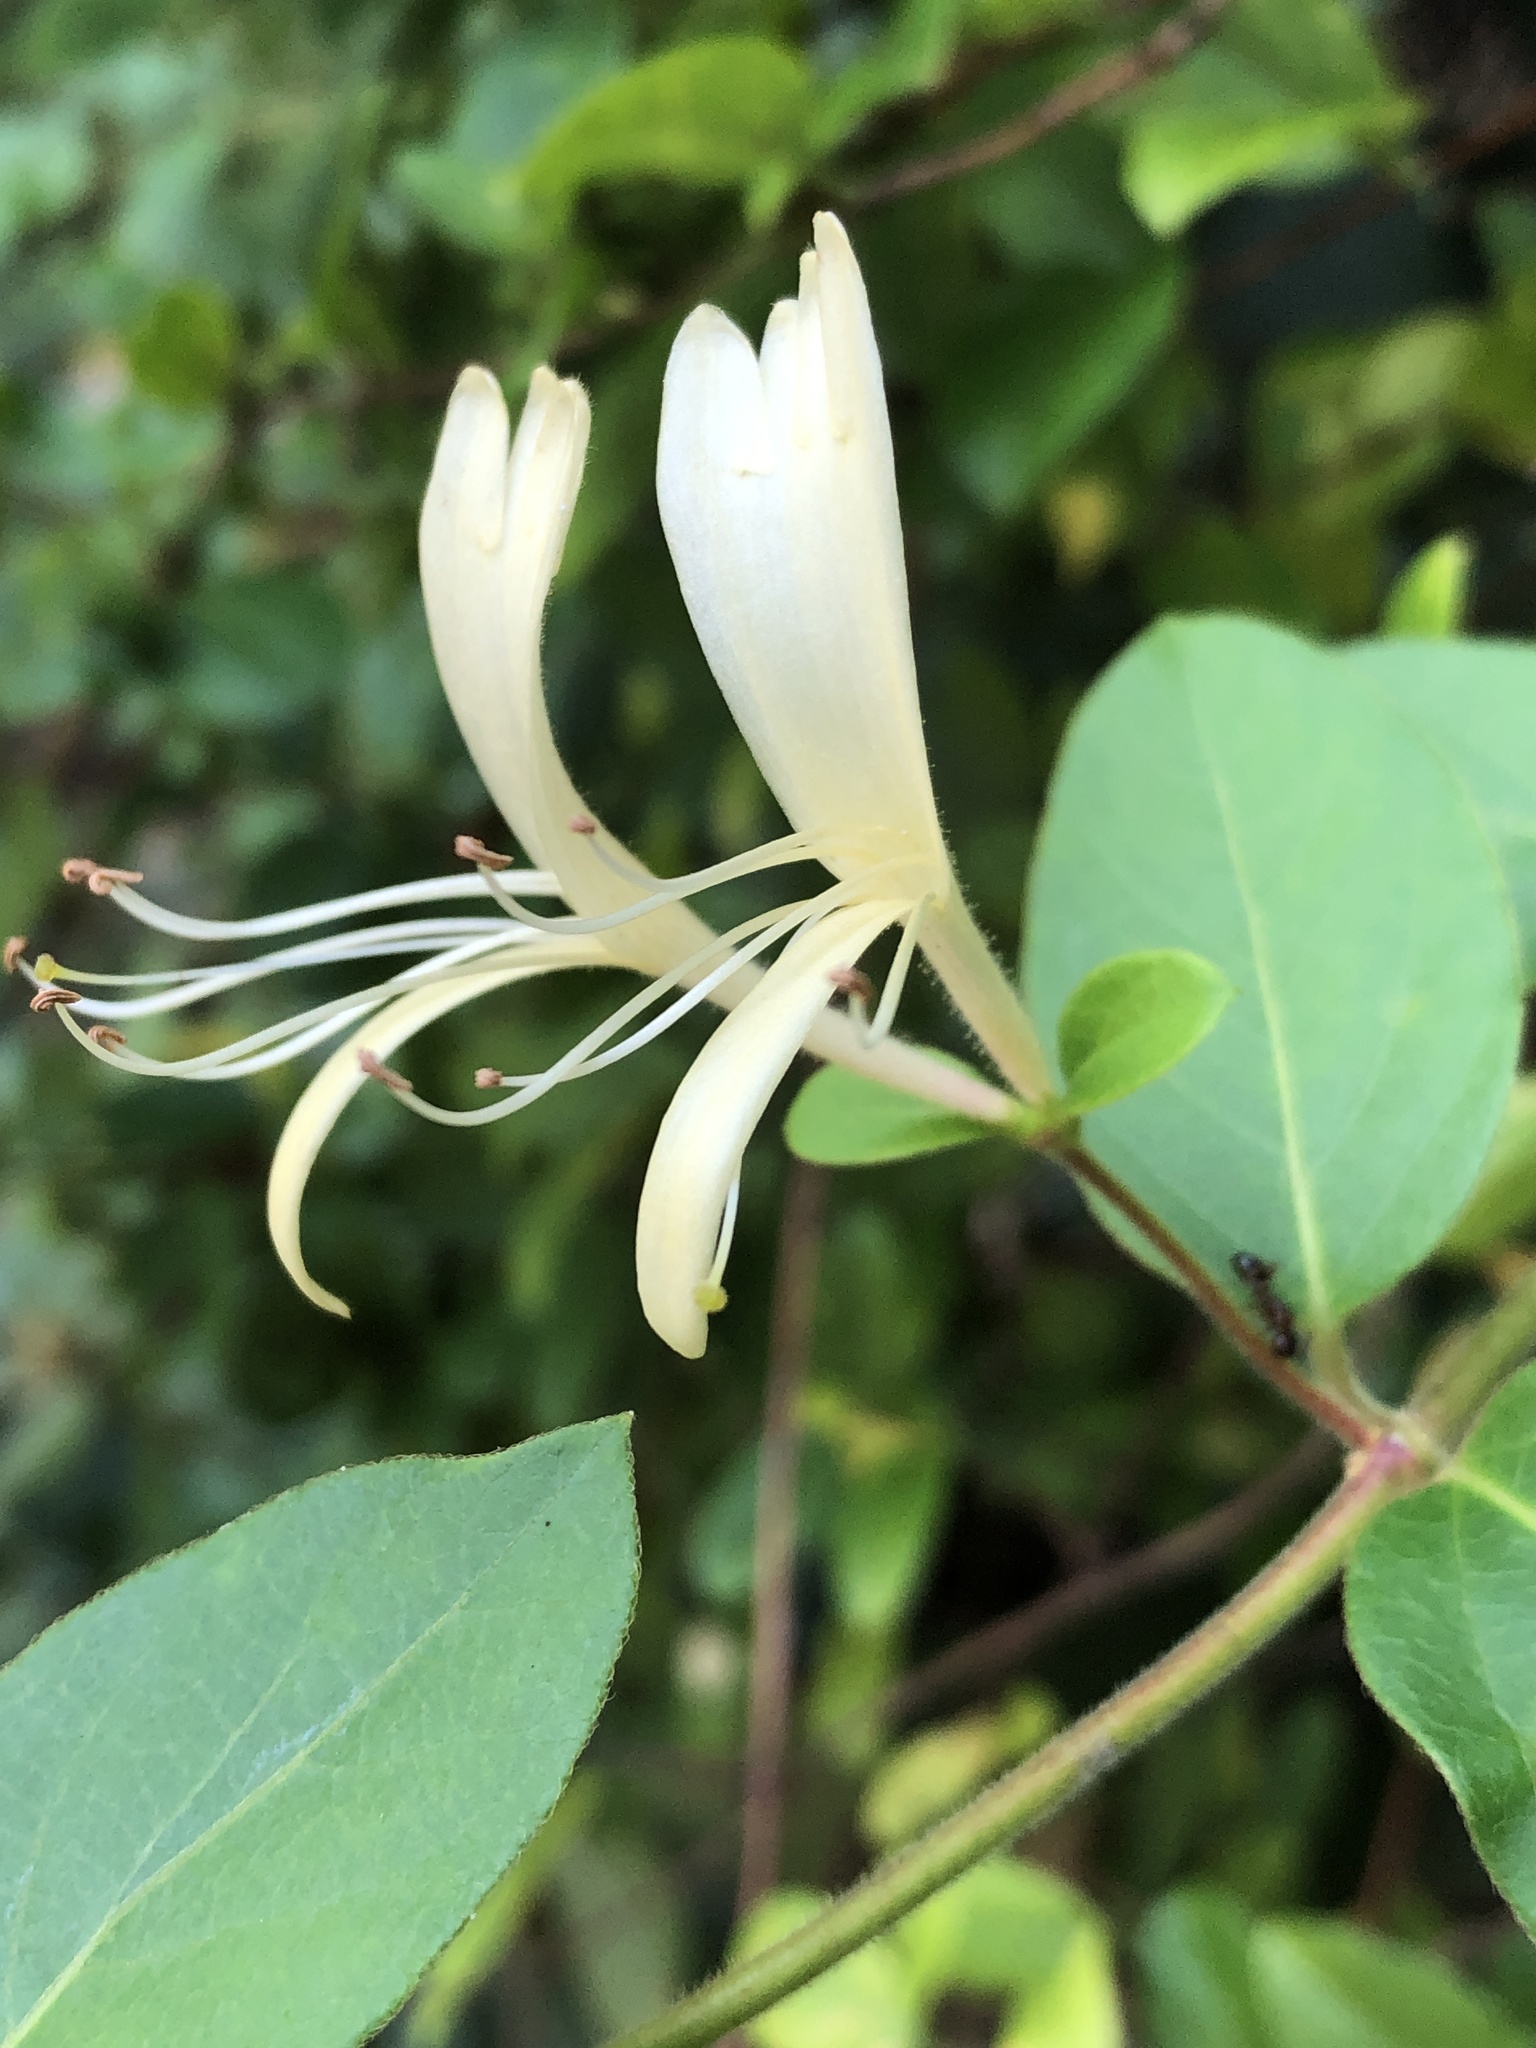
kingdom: Plantae
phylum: Tracheophyta
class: Magnoliopsida
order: Dipsacales
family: Caprifoliaceae
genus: Lonicera
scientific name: Lonicera japonica
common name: Japanese honeysuckle
